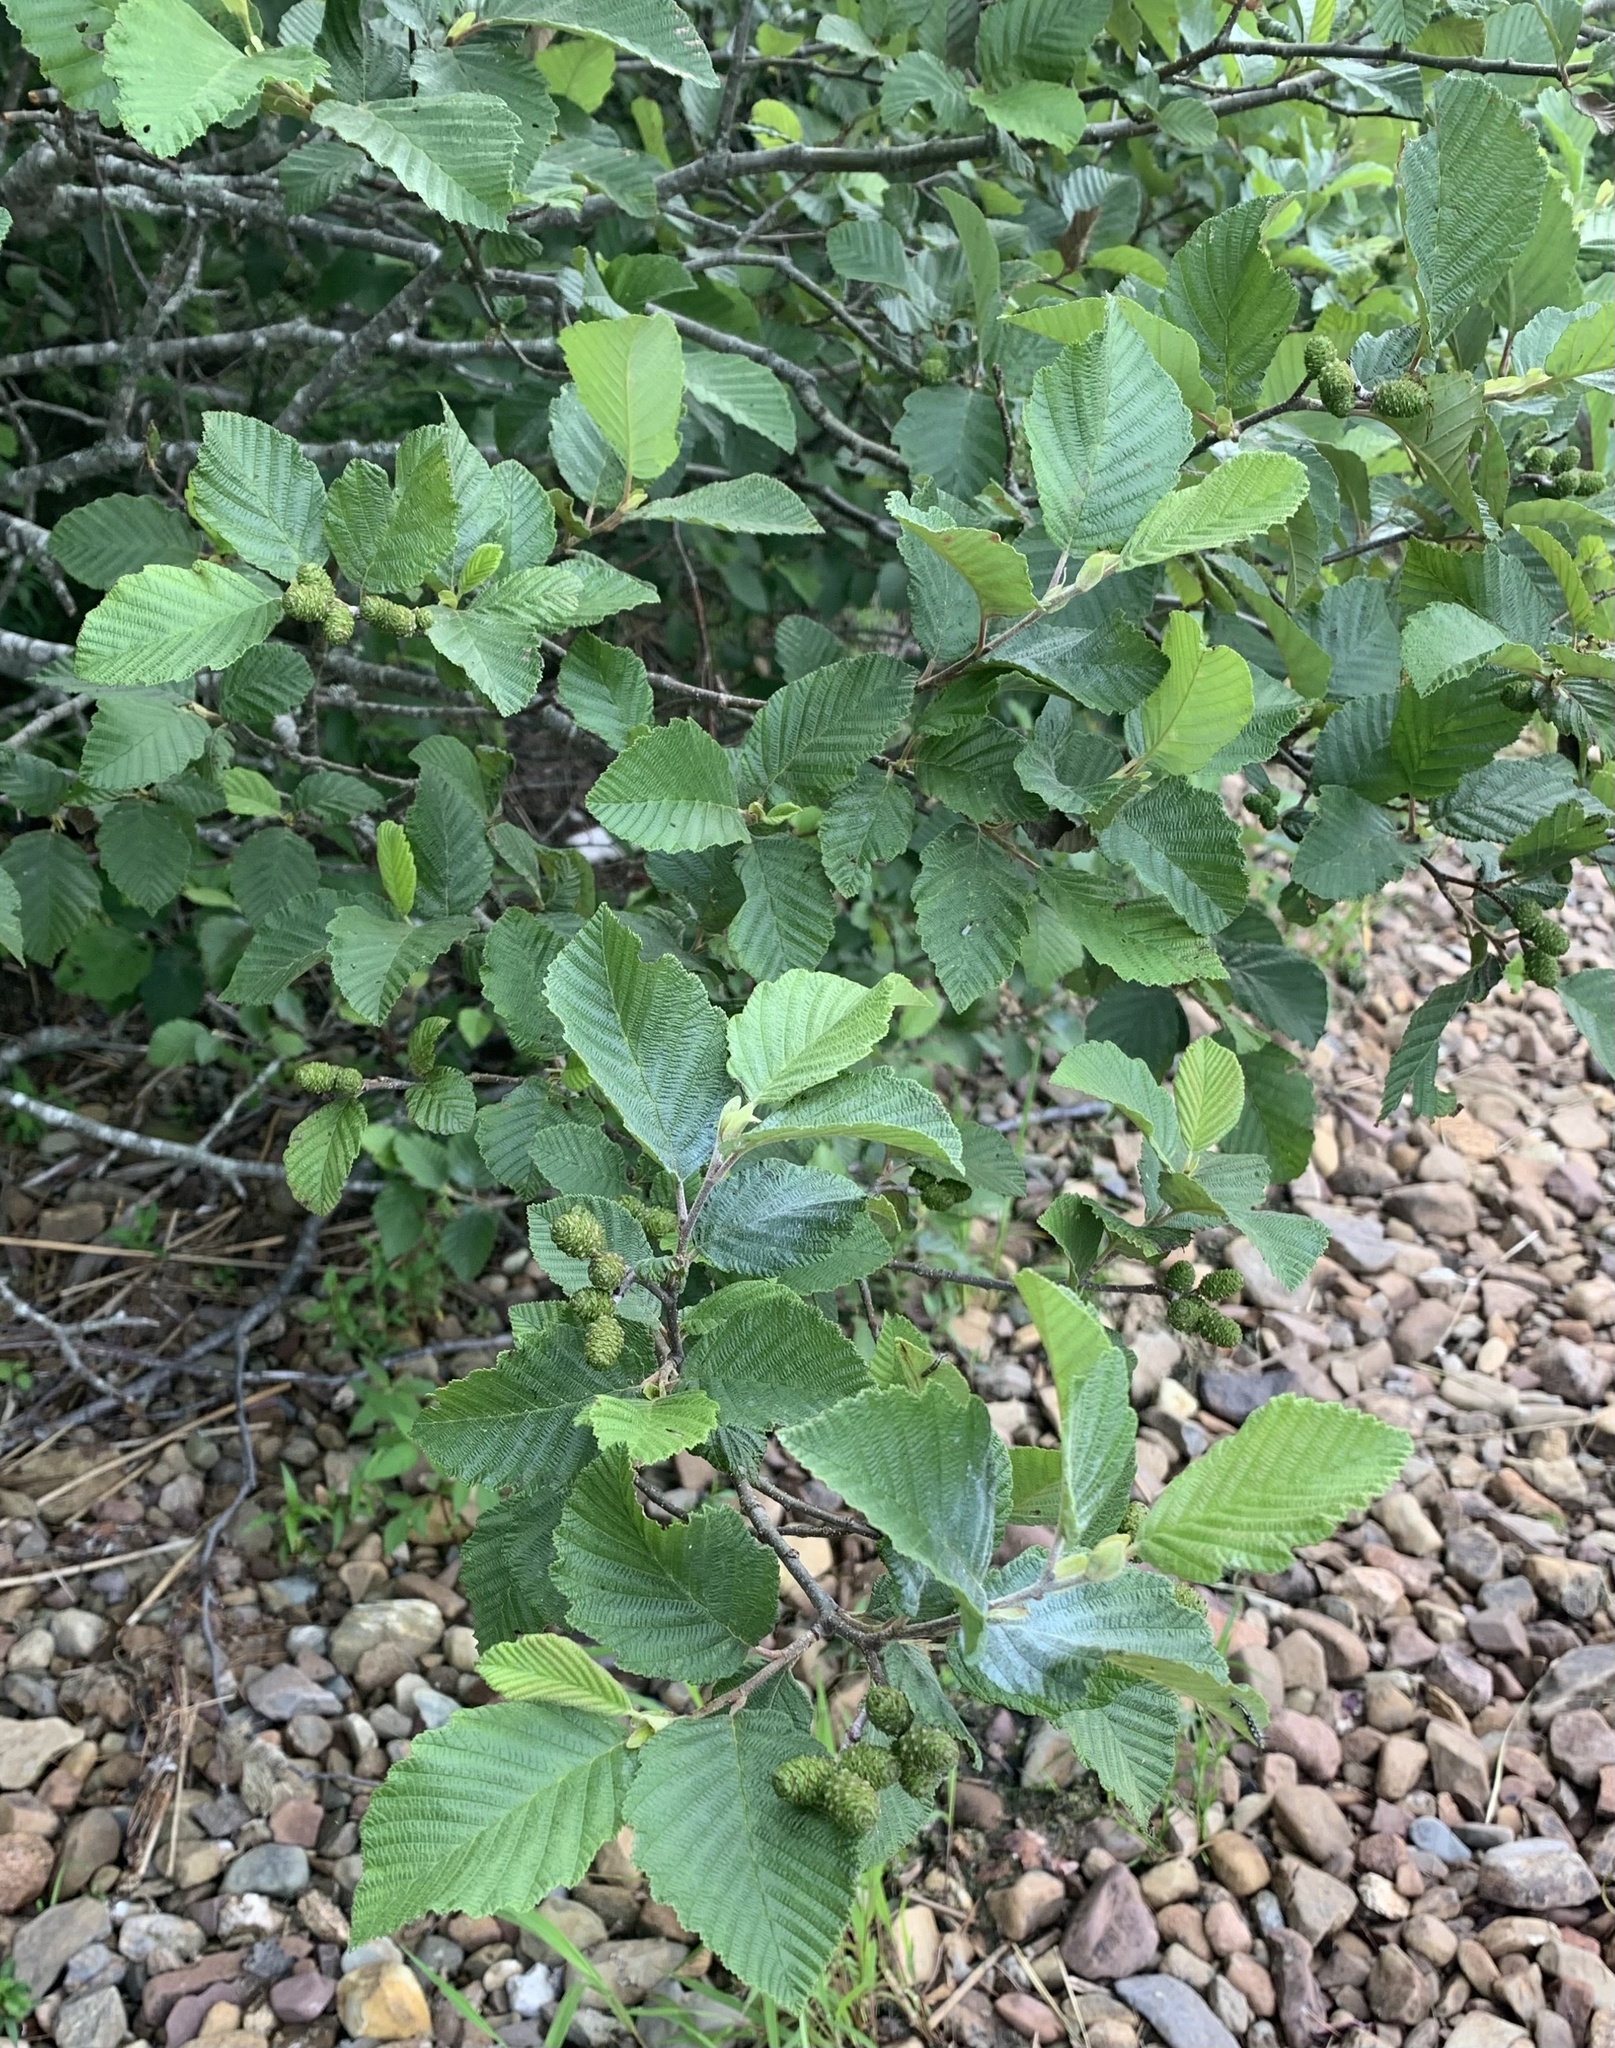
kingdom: Plantae
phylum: Tracheophyta
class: Magnoliopsida
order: Fagales
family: Betulaceae
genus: Alnus
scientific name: Alnus incana
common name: Grey alder
